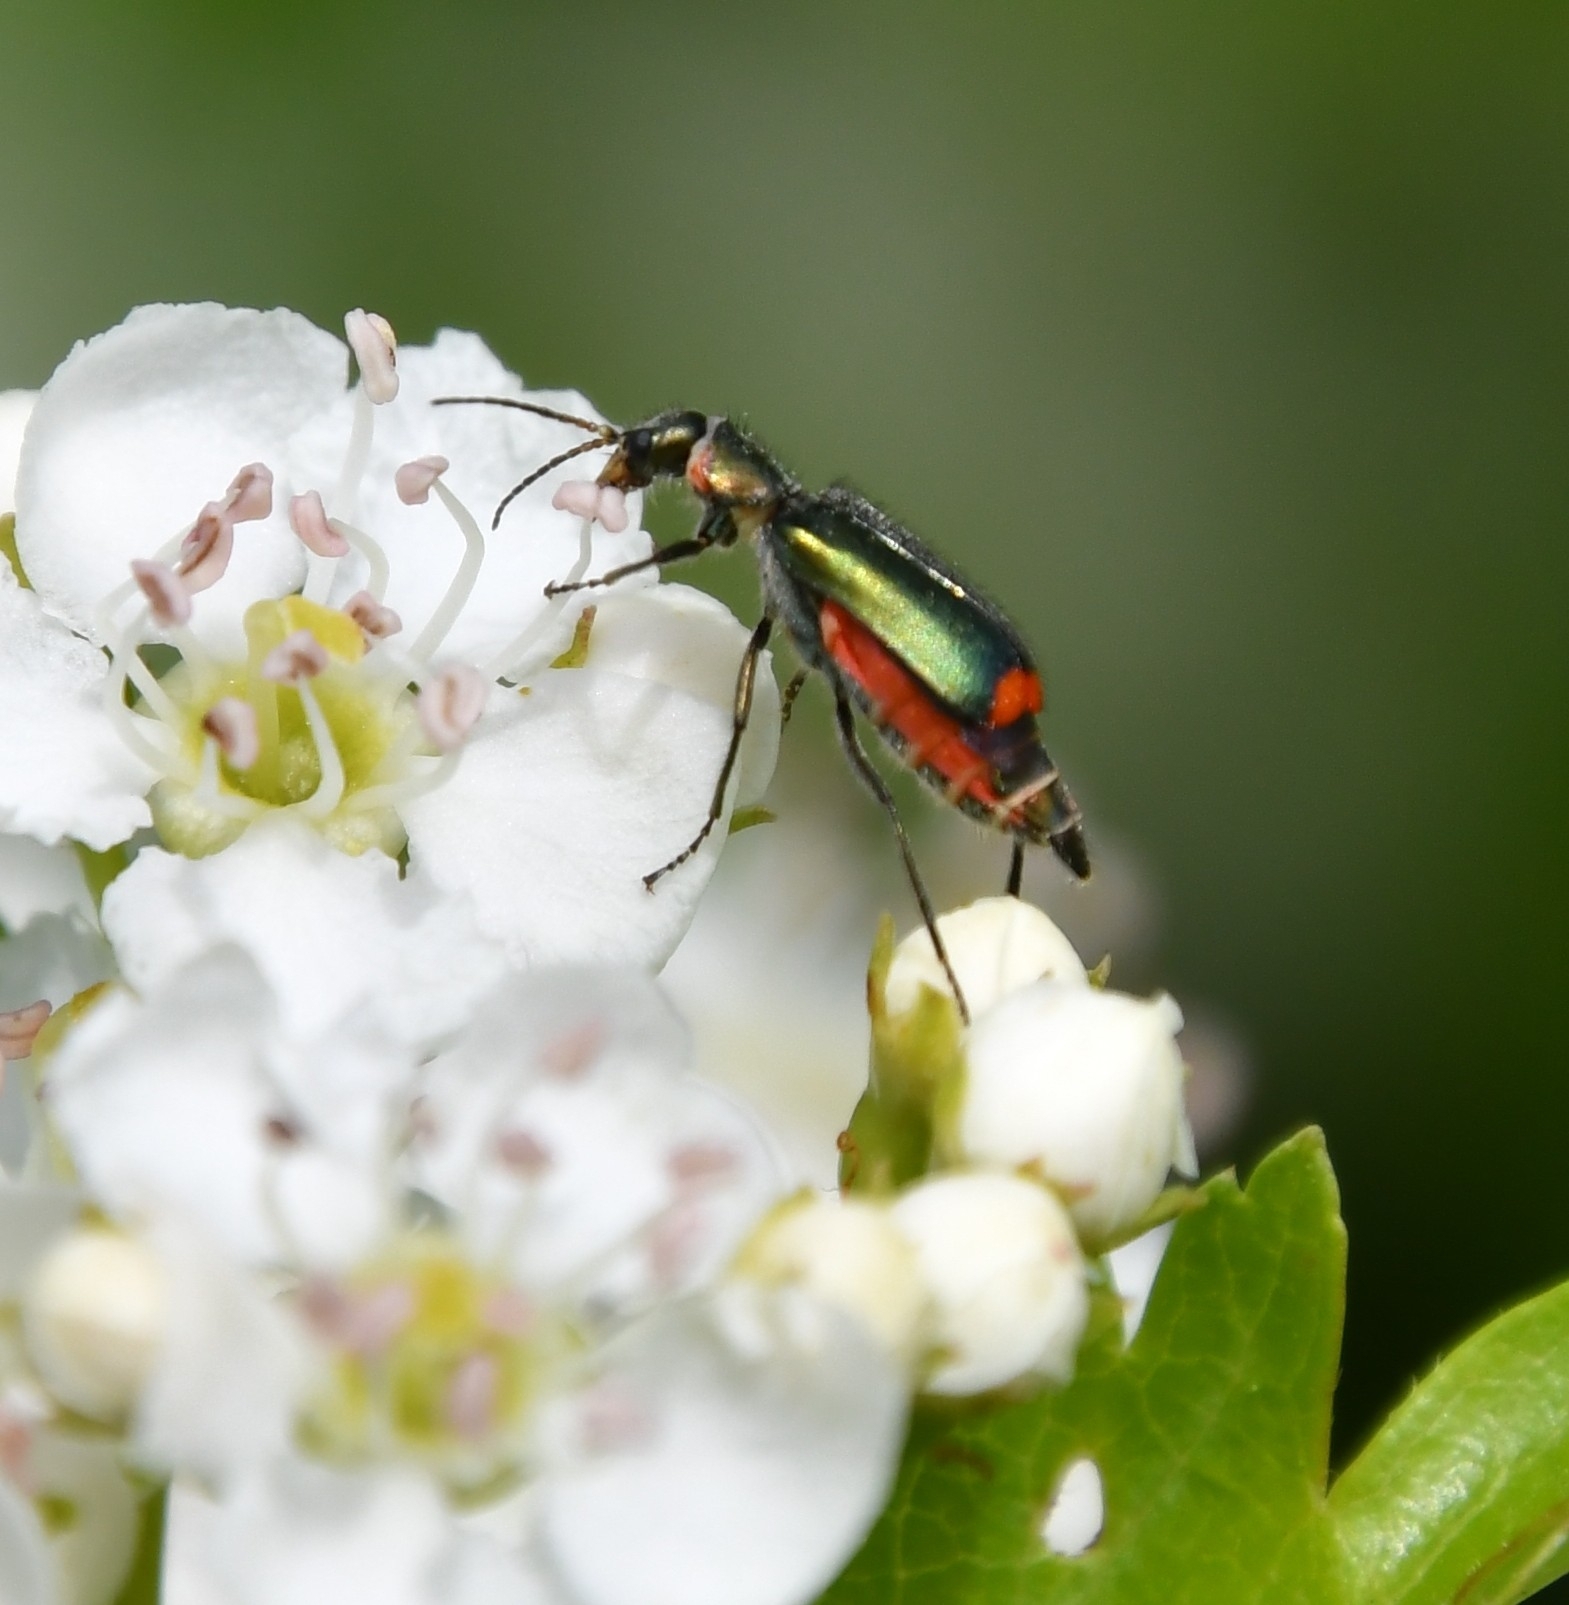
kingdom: Animalia
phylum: Arthropoda
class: Insecta
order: Coleoptera
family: Melyridae
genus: Malachius
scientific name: Malachius bipustulatus
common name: Malachite beetle
